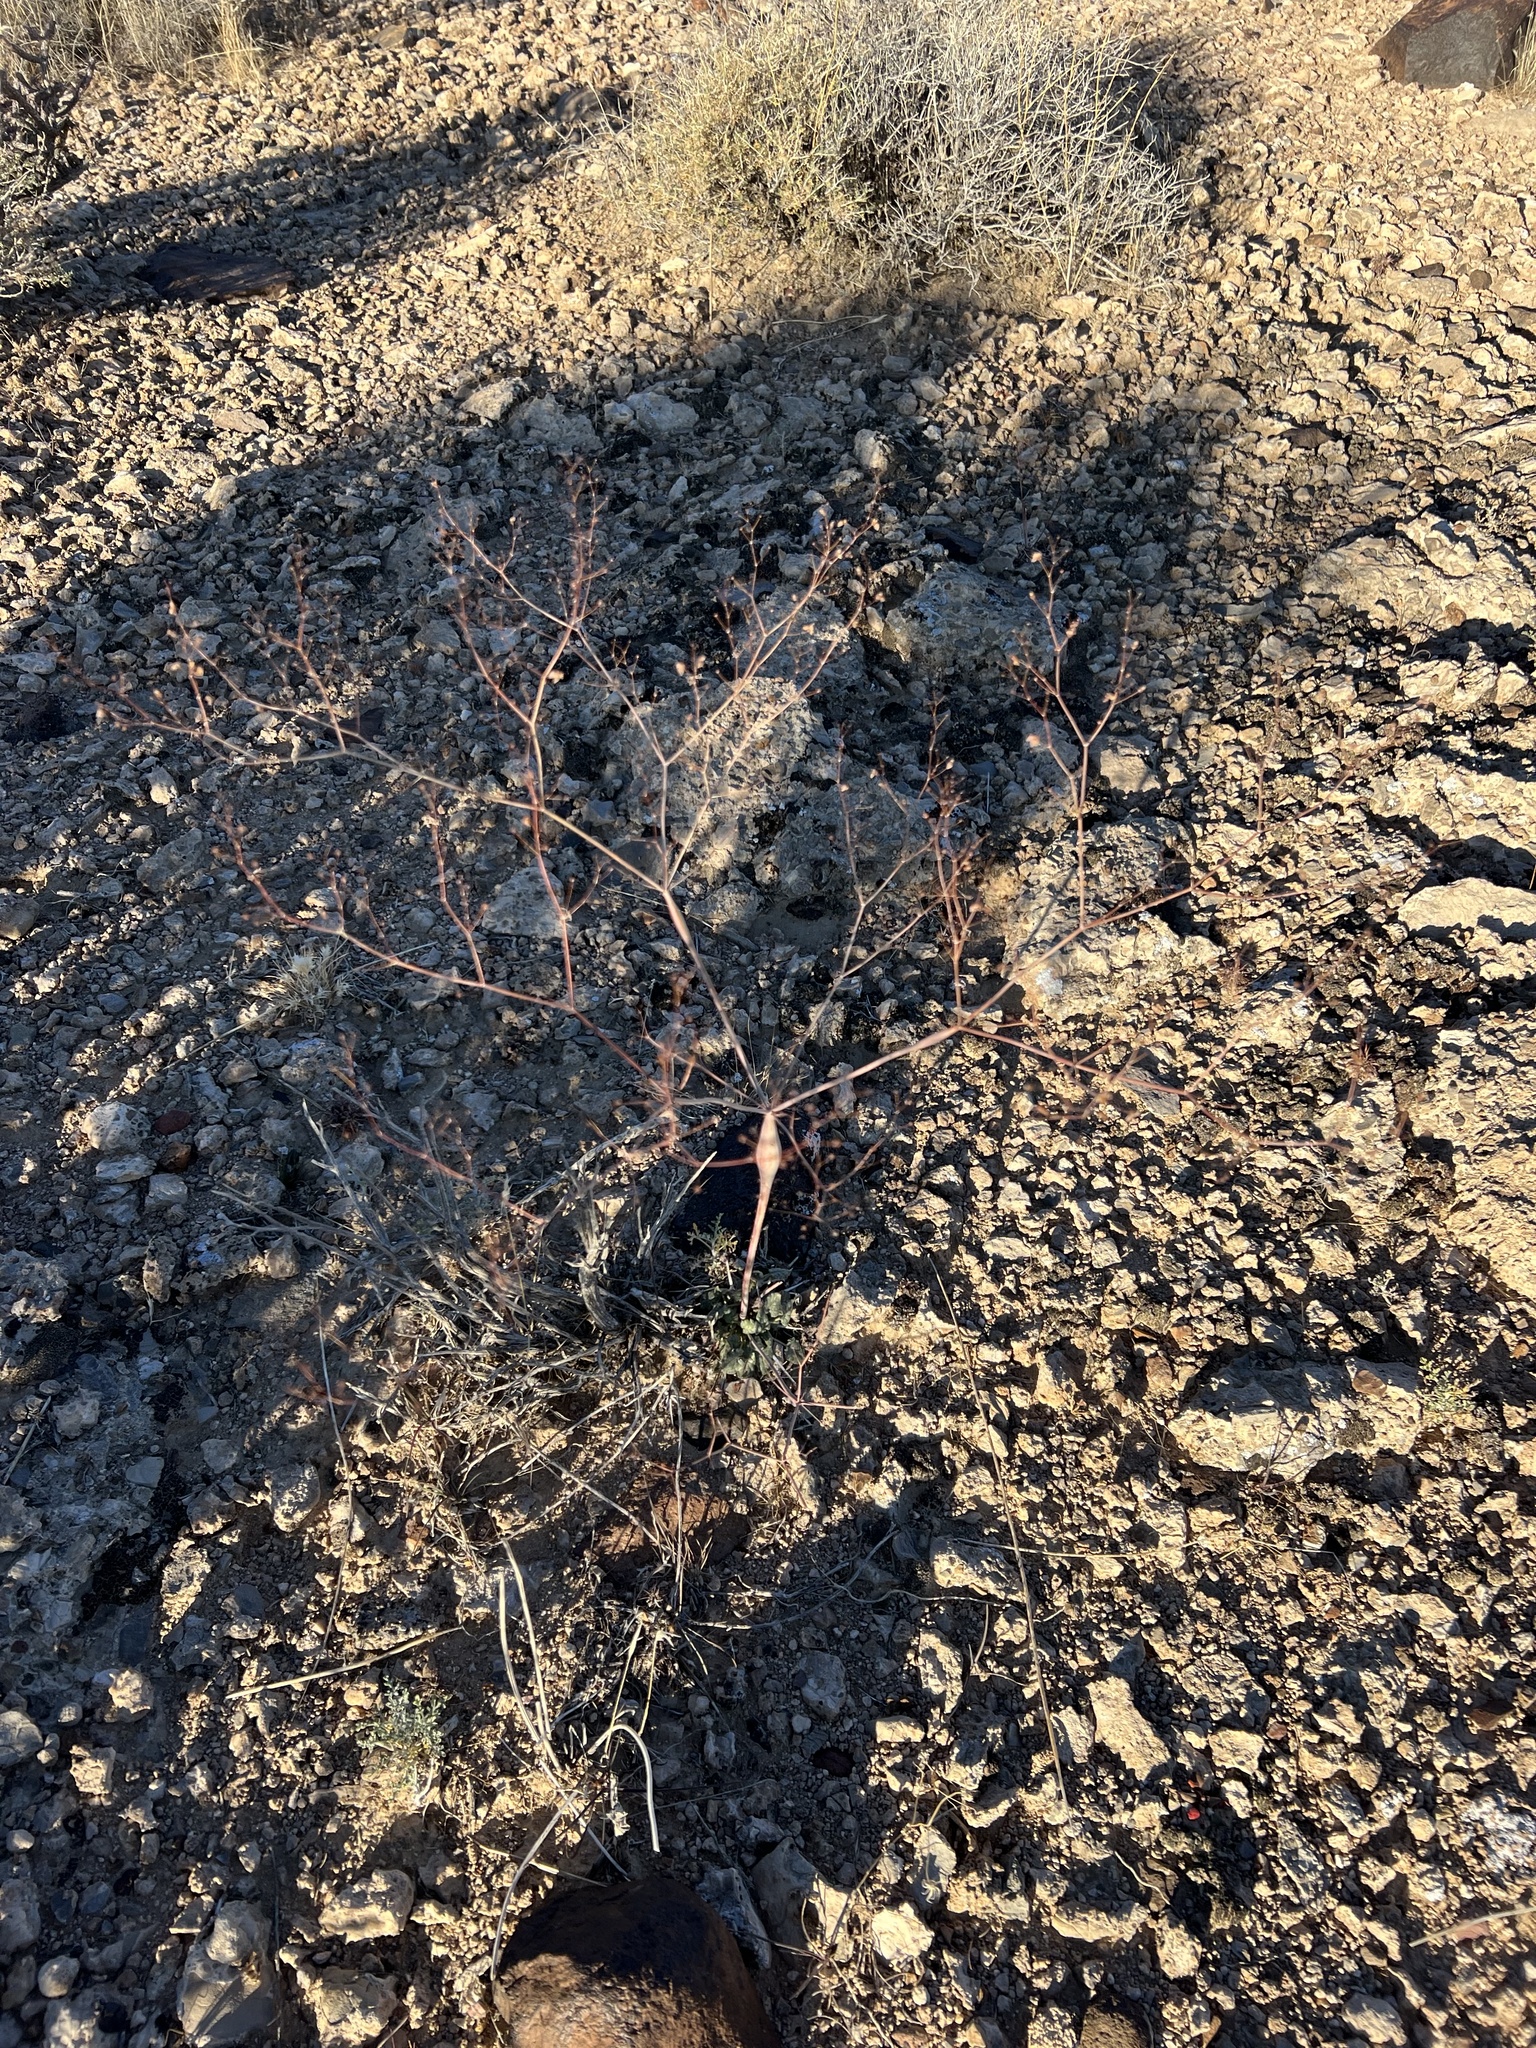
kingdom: Plantae
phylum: Tracheophyta
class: Magnoliopsida
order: Caryophyllales
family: Polygonaceae
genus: Eriogonum
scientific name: Eriogonum inflatum
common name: Desert trumpet
